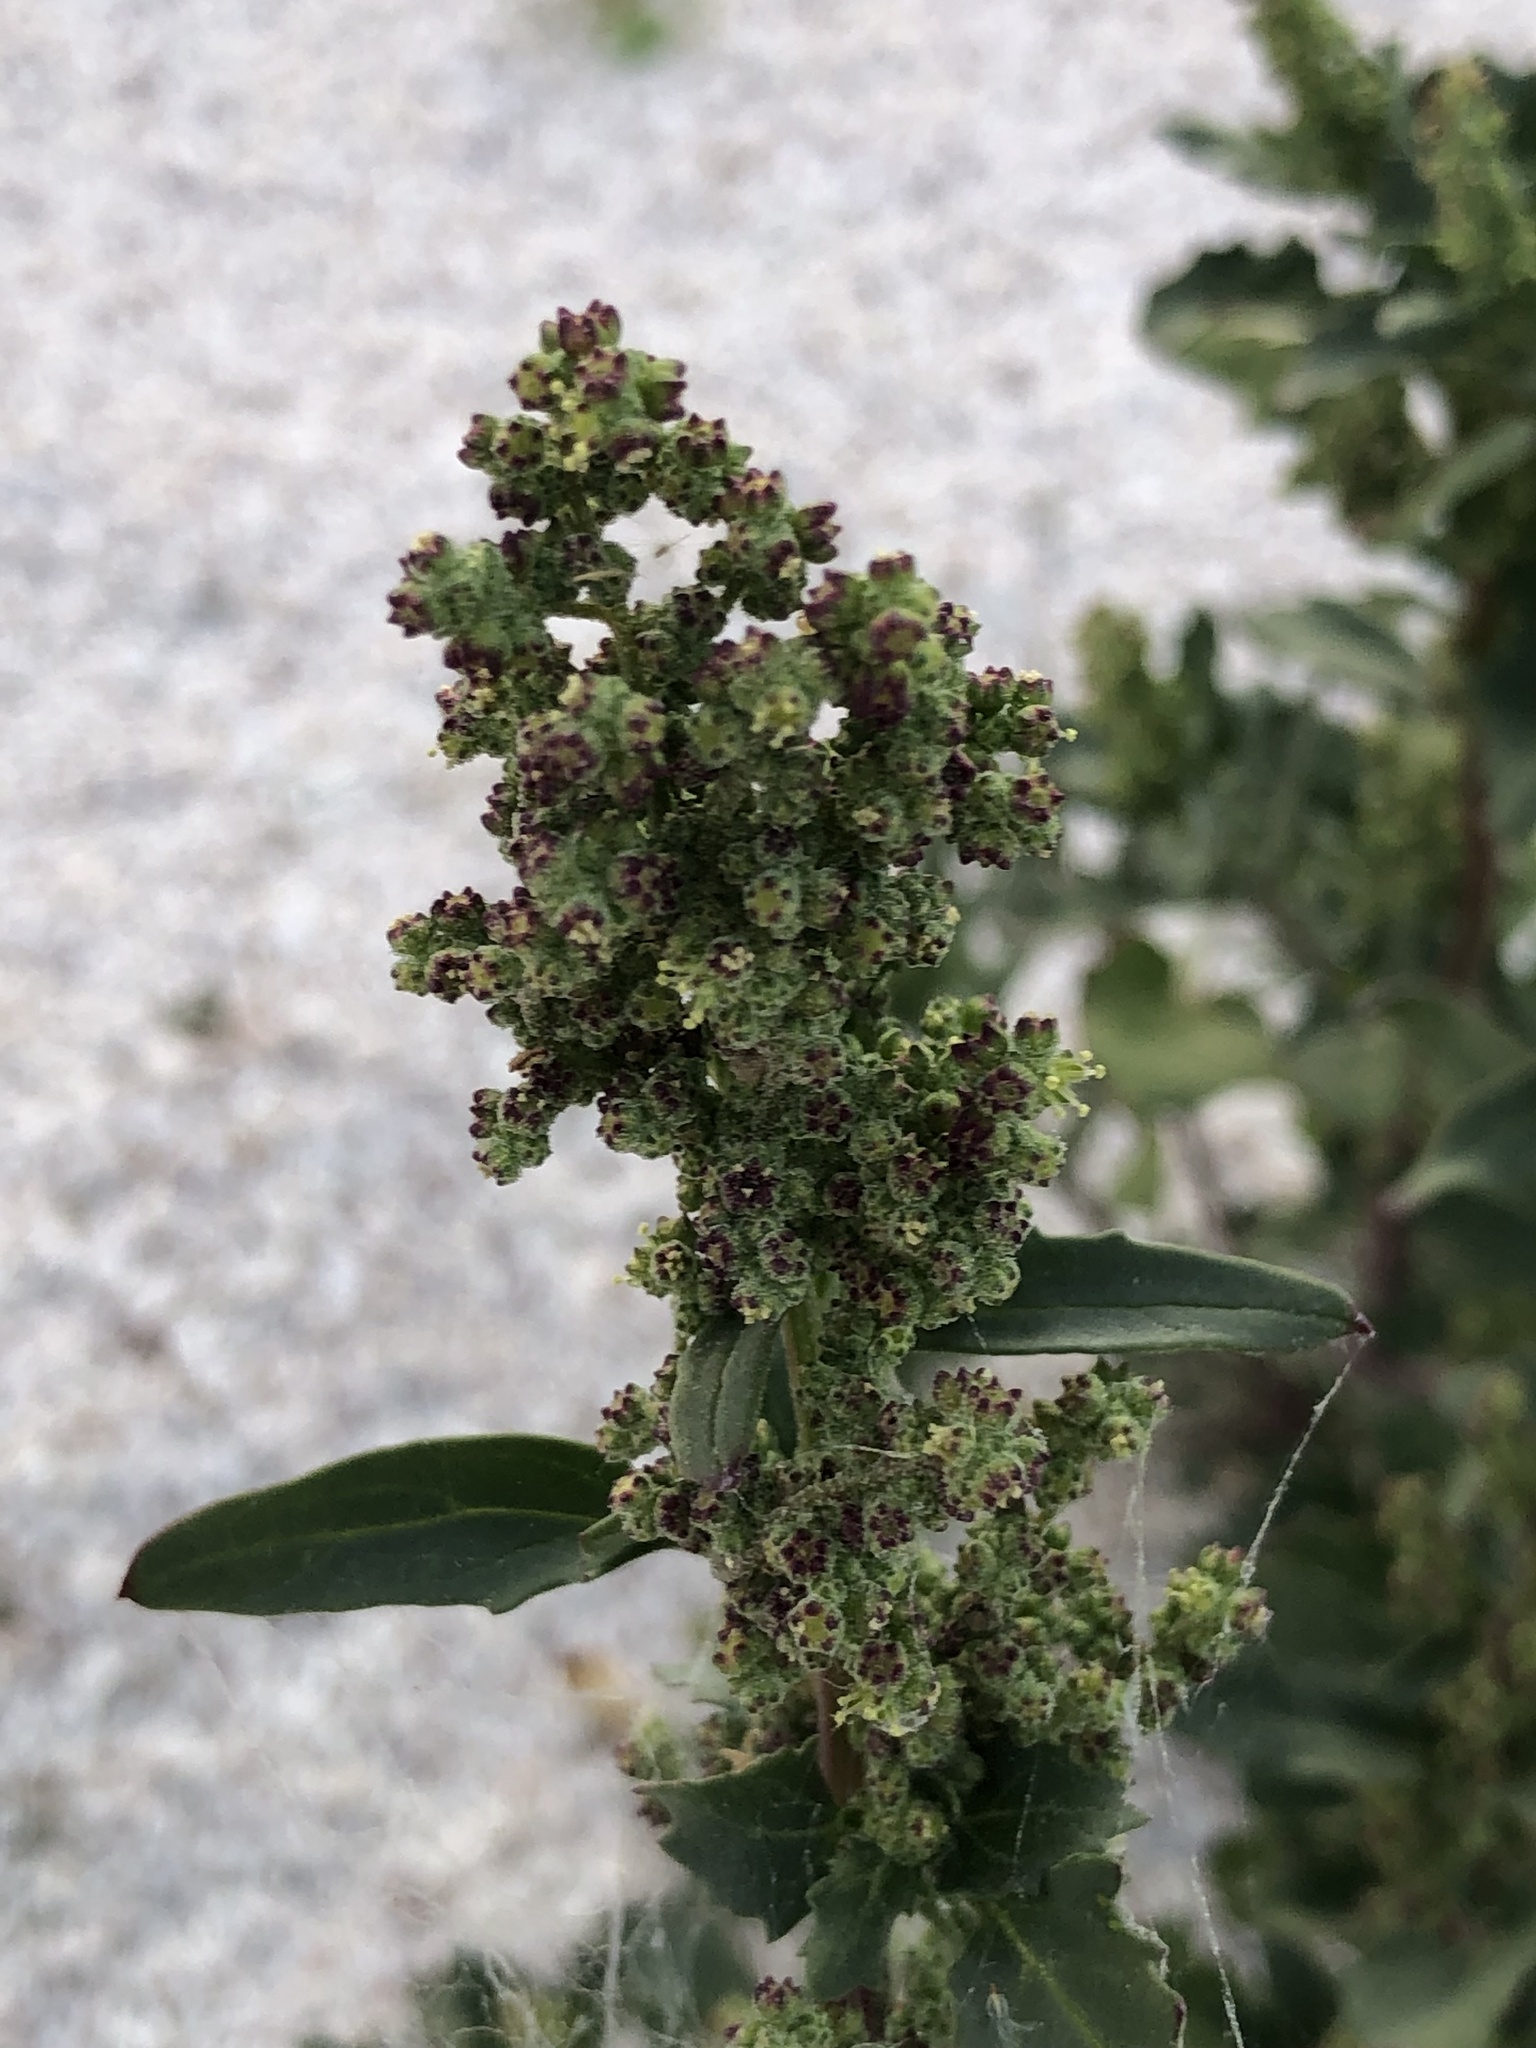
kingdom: Plantae
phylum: Tracheophyta
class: Magnoliopsida
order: Caryophyllales
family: Amaranthaceae
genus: Chenopodiastrum
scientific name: Chenopodiastrum murale
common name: Sowbane
